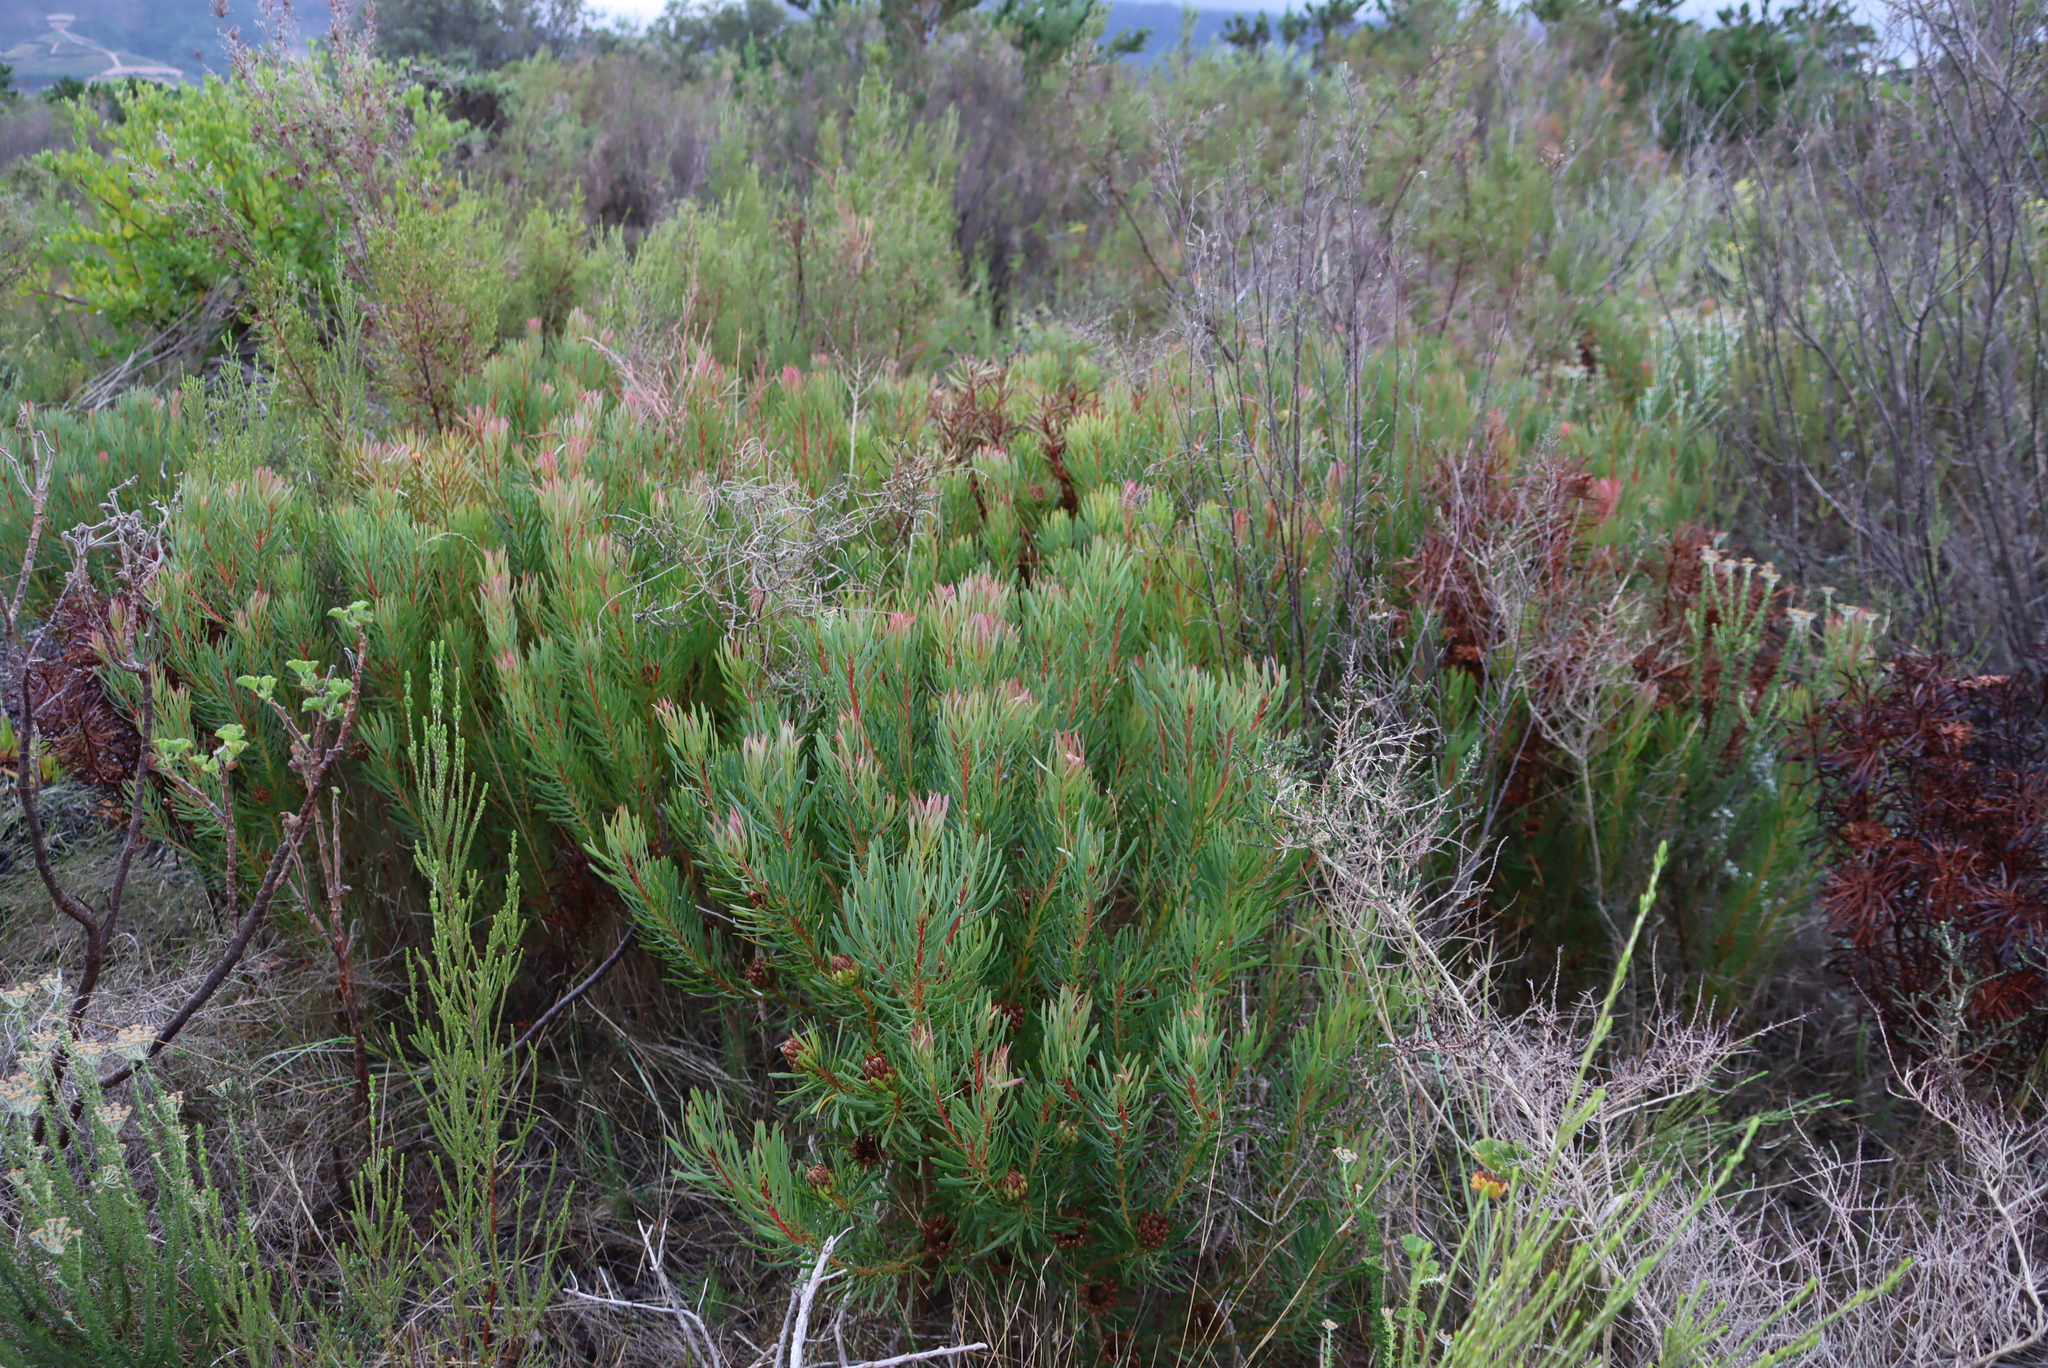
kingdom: Plantae
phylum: Tracheophyta
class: Magnoliopsida
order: Proteales
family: Proteaceae
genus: Protea
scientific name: Protea scolymocephala
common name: Thistle sugarbush
